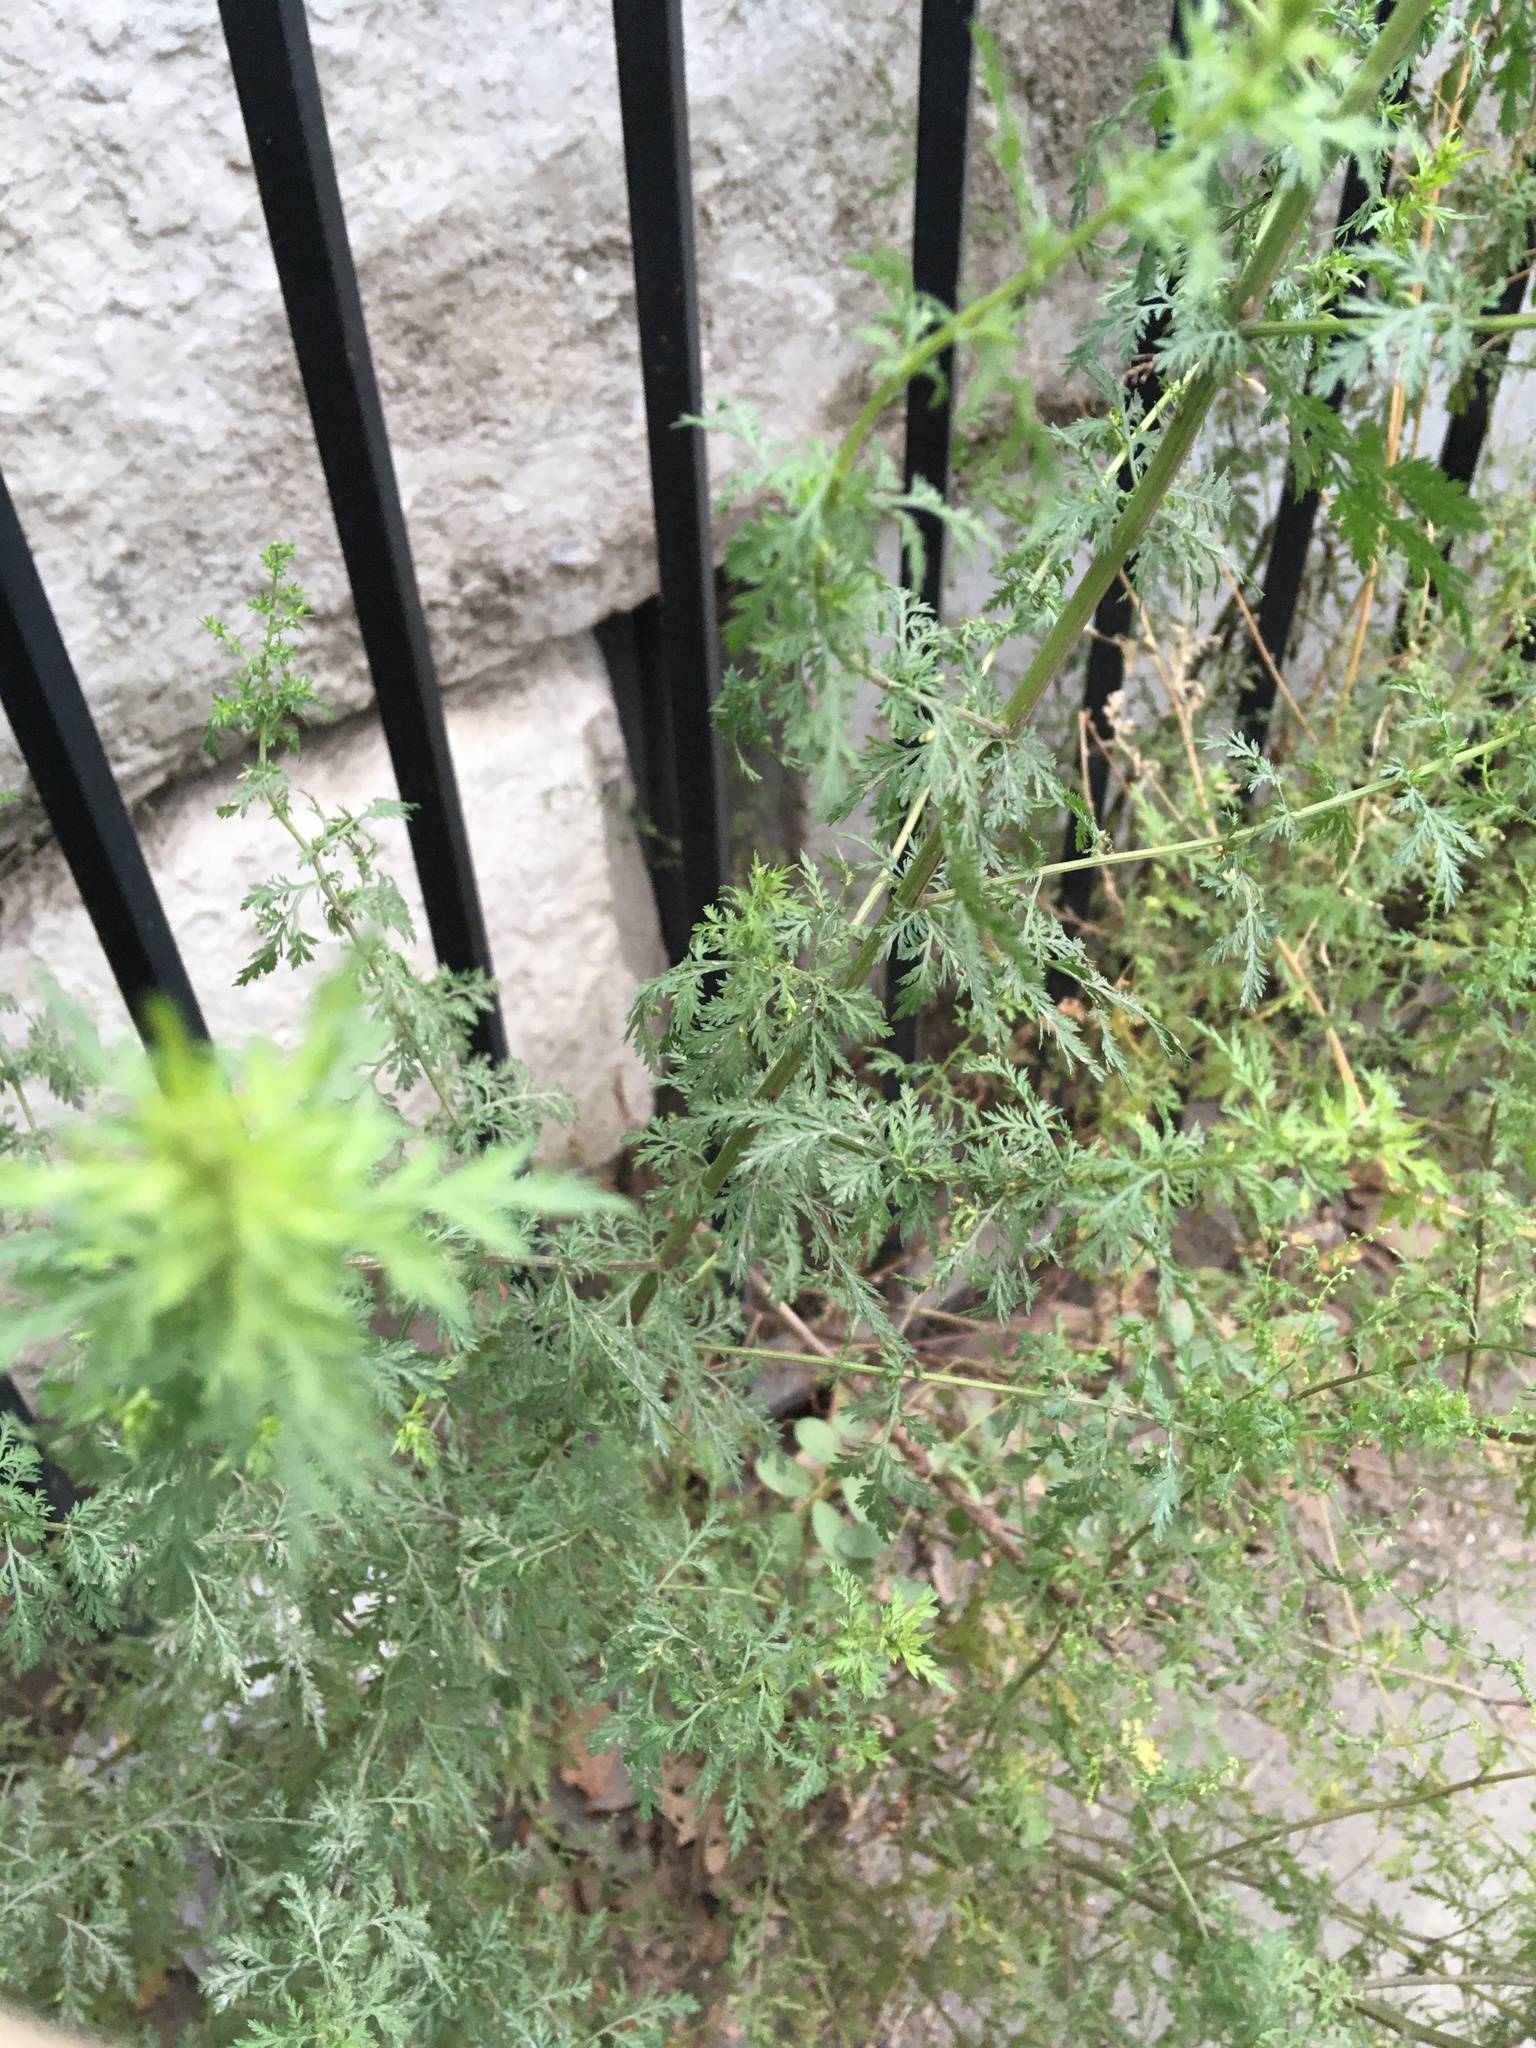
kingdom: Plantae
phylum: Tracheophyta
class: Magnoliopsida
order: Asterales
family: Asteraceae
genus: Artemisia
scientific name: Artemisia annua
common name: Sweet sagewort
